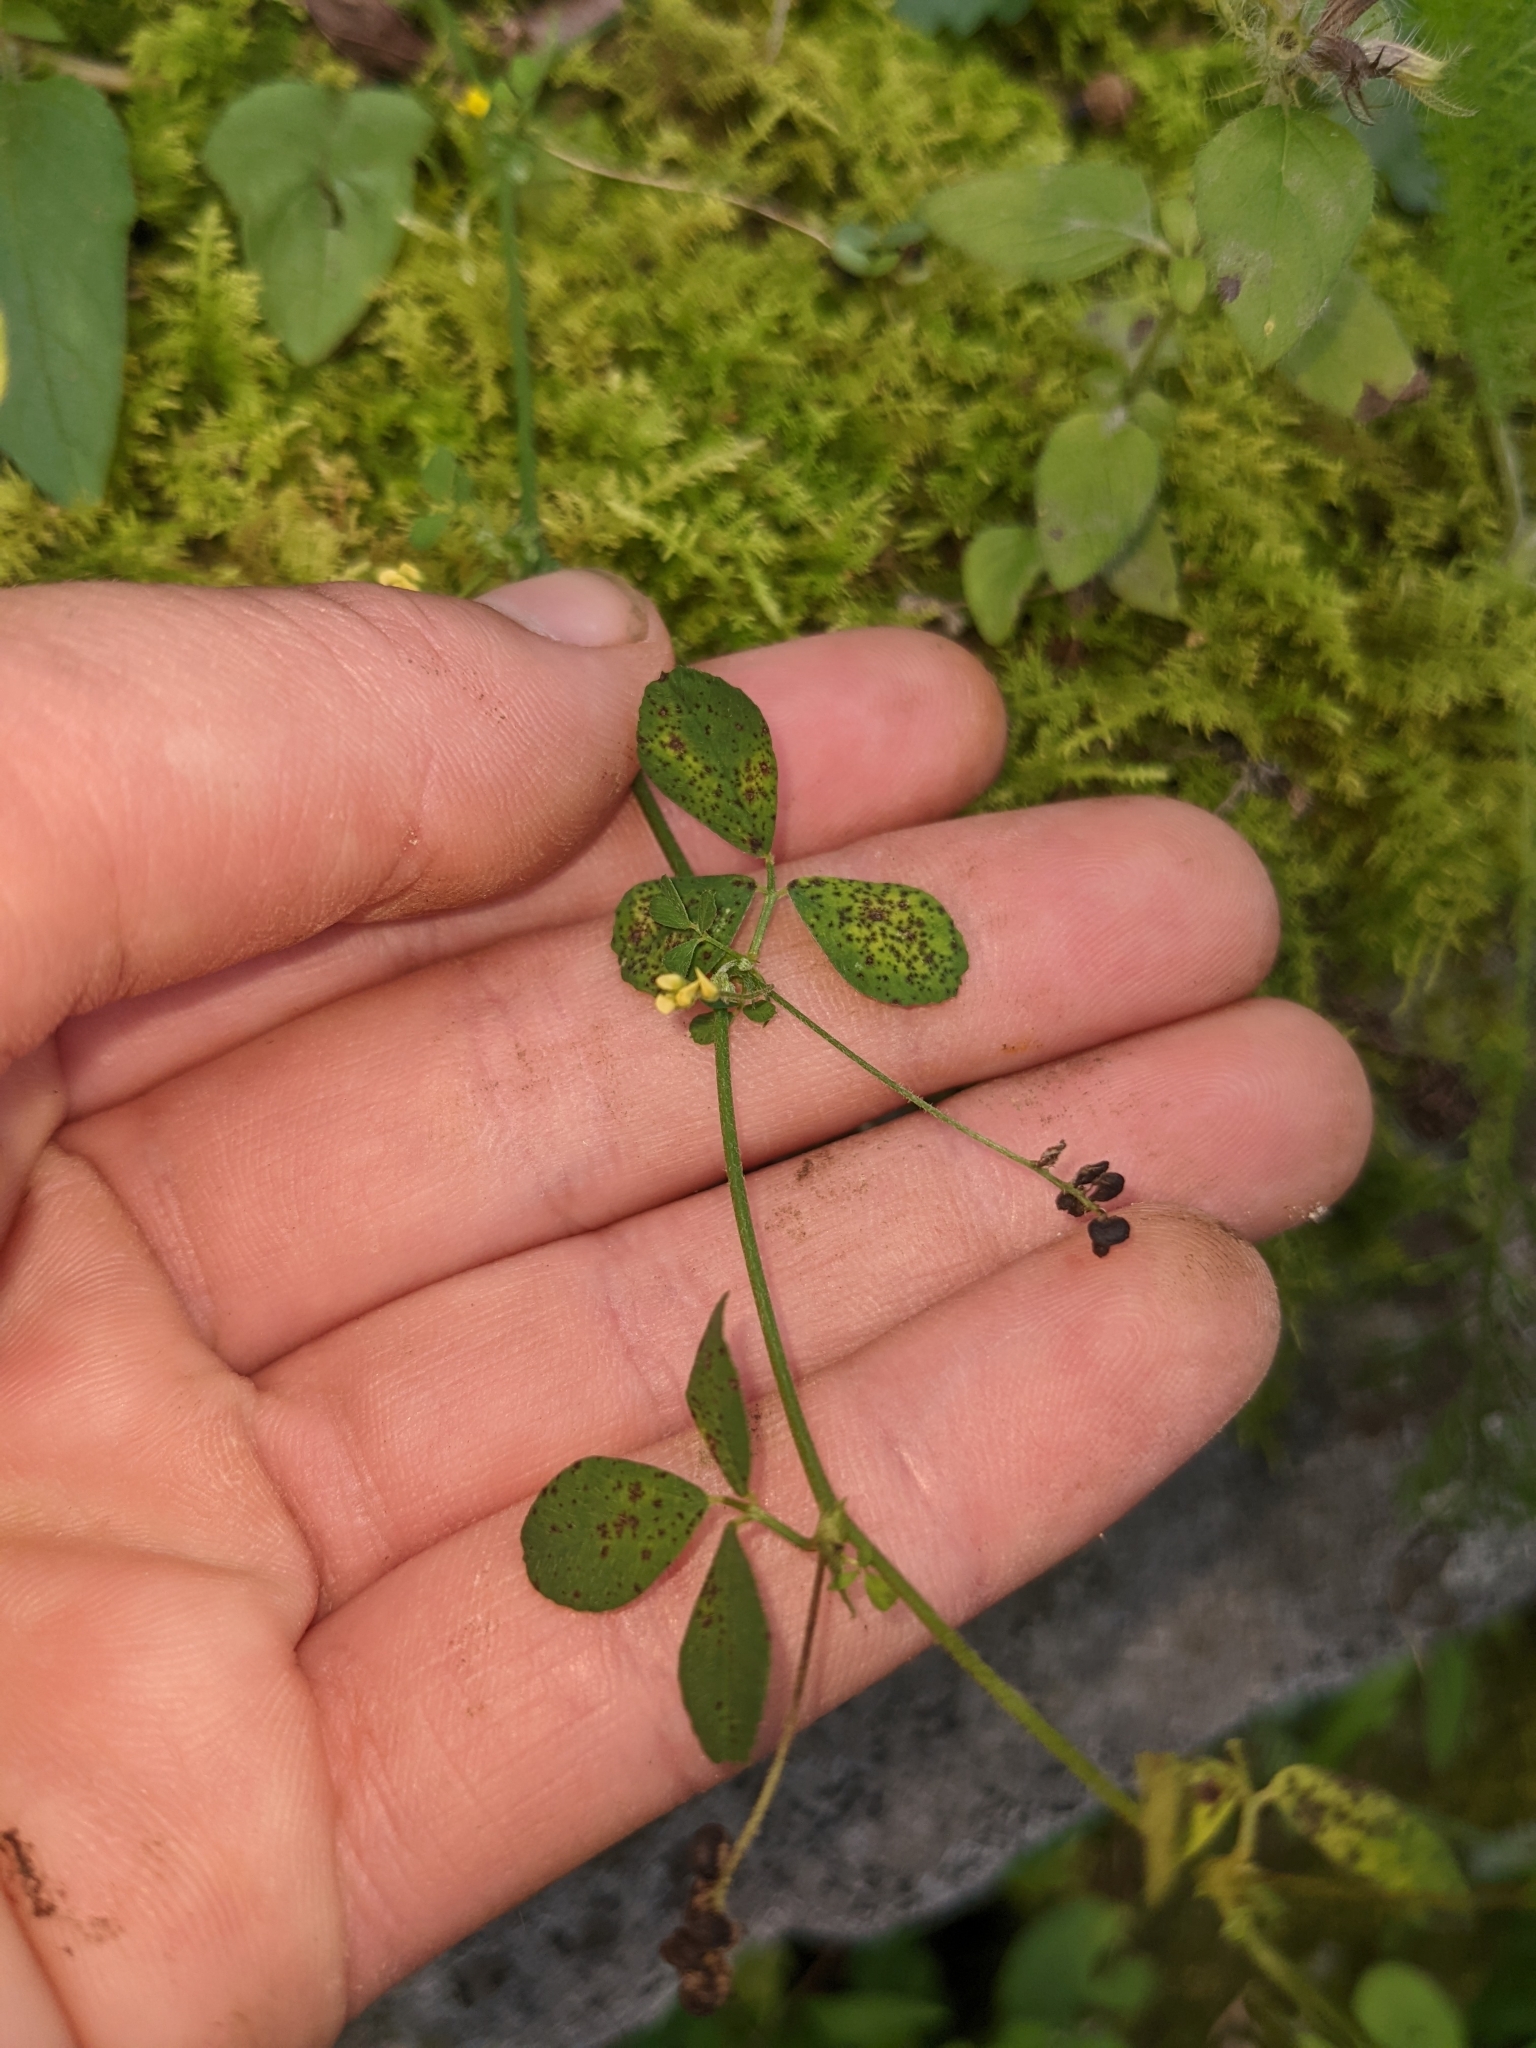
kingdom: Plantae
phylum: Tracheophyta
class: Magnoliopsida
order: Fabales
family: Fabaceae
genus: Medicago
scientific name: Medicago lupulina
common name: Black medick
